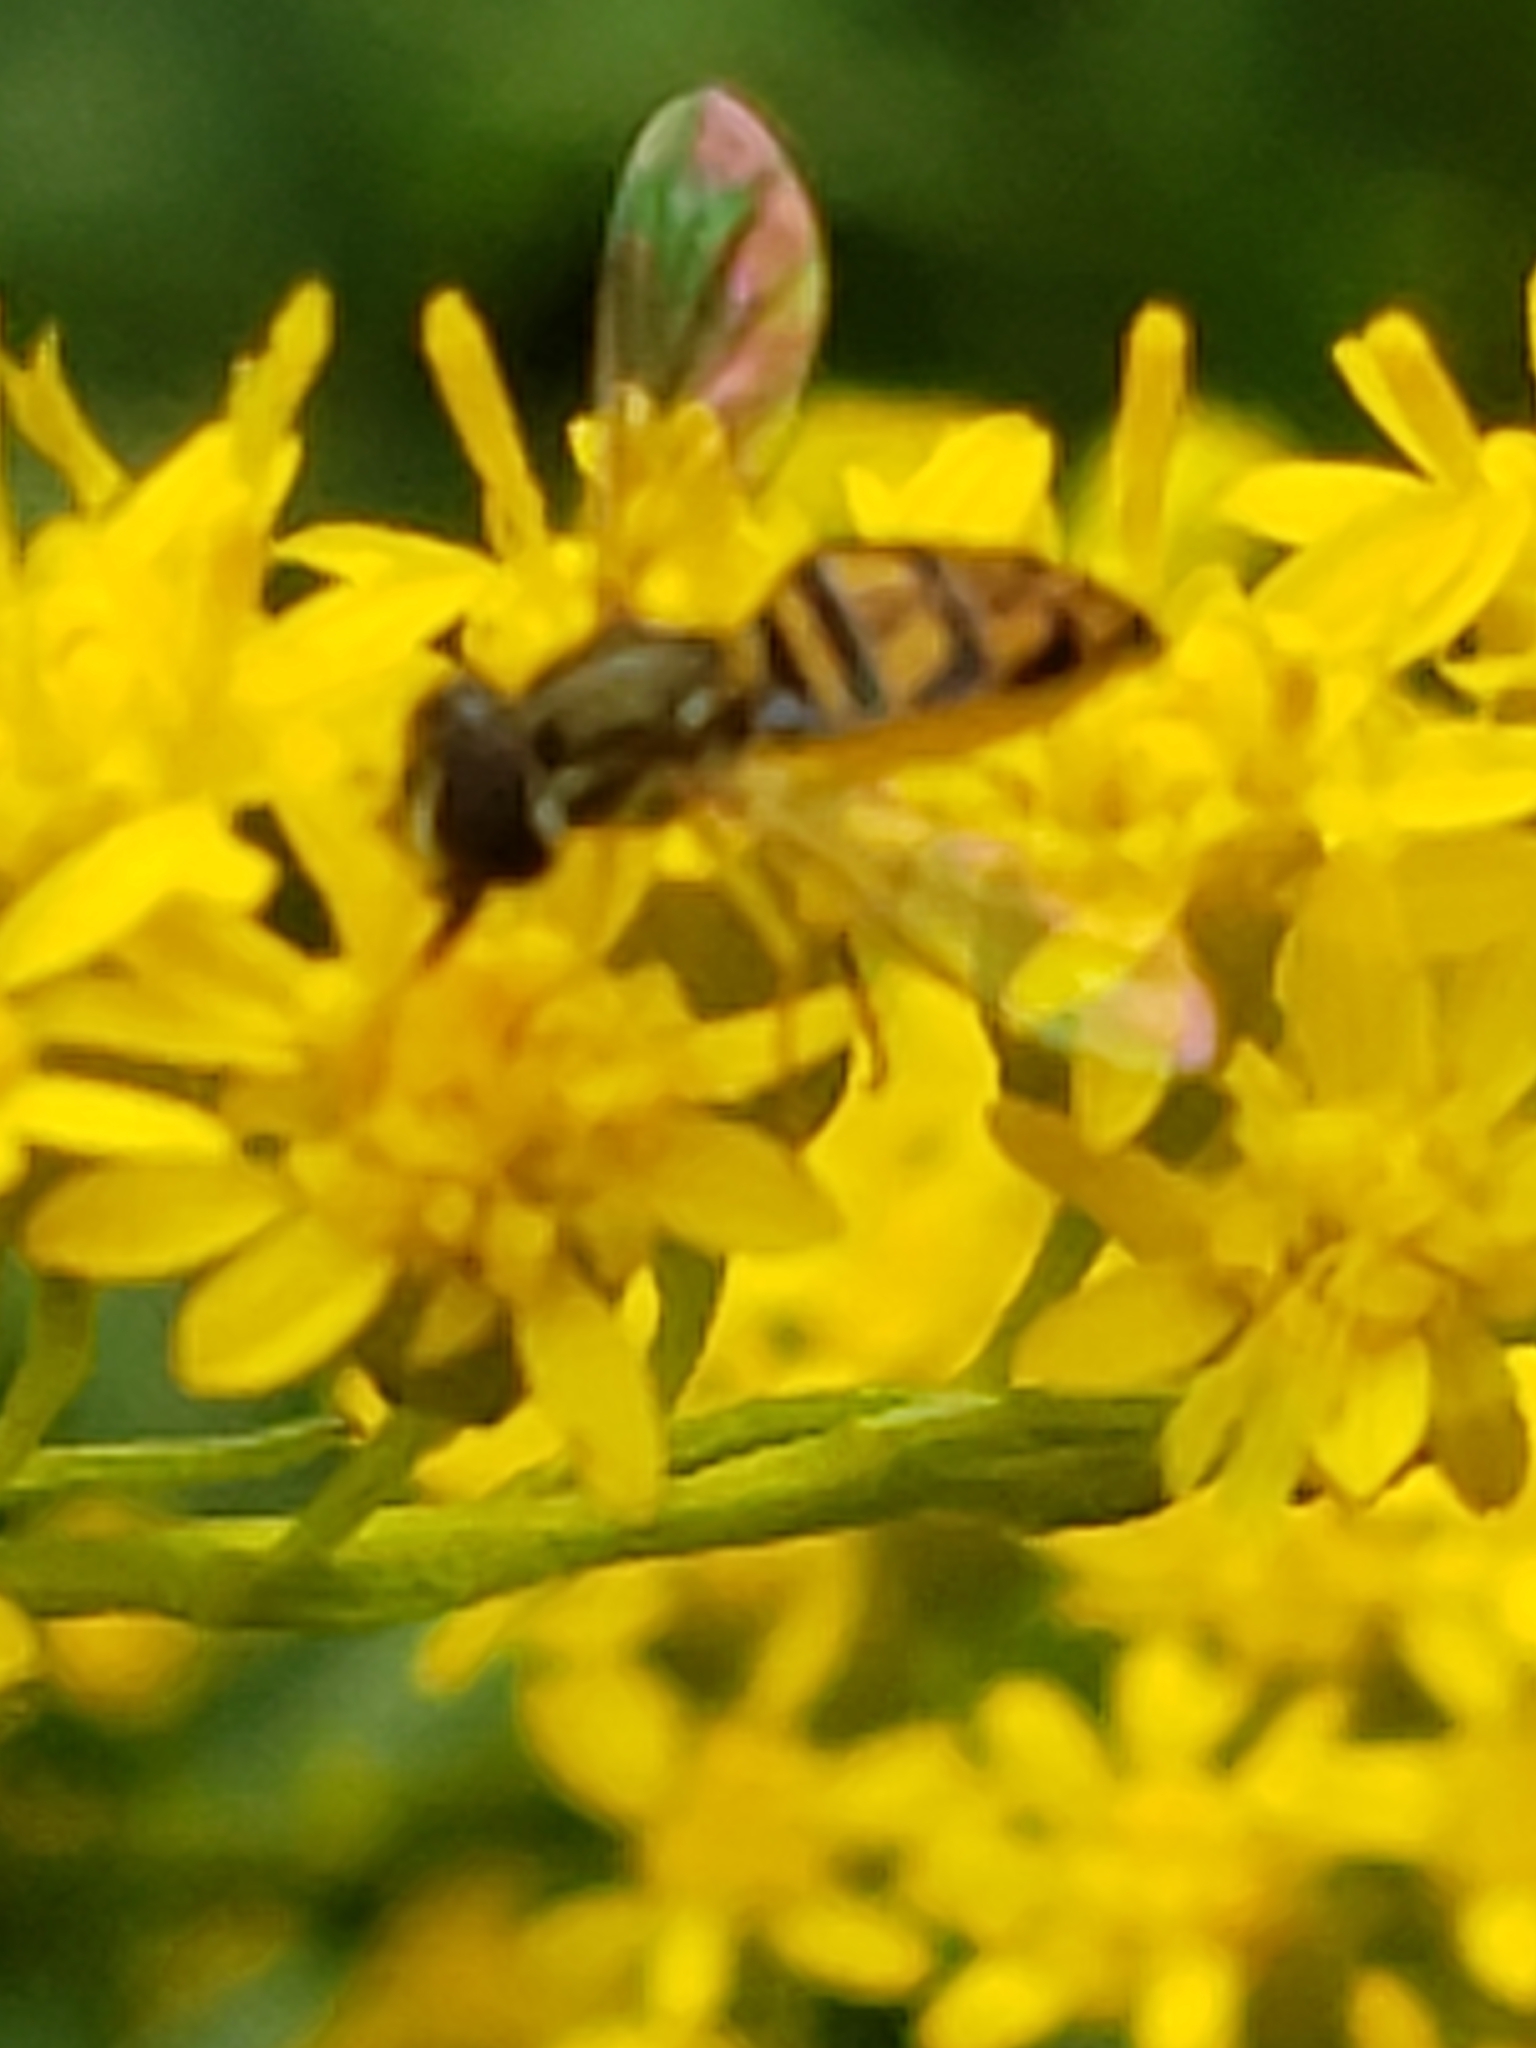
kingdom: Animalia
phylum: Arthropoda
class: Insecta
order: Diptera
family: Syrphidae
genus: Toxomerus
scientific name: Toxomerus marginatus
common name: Syrphid fly
